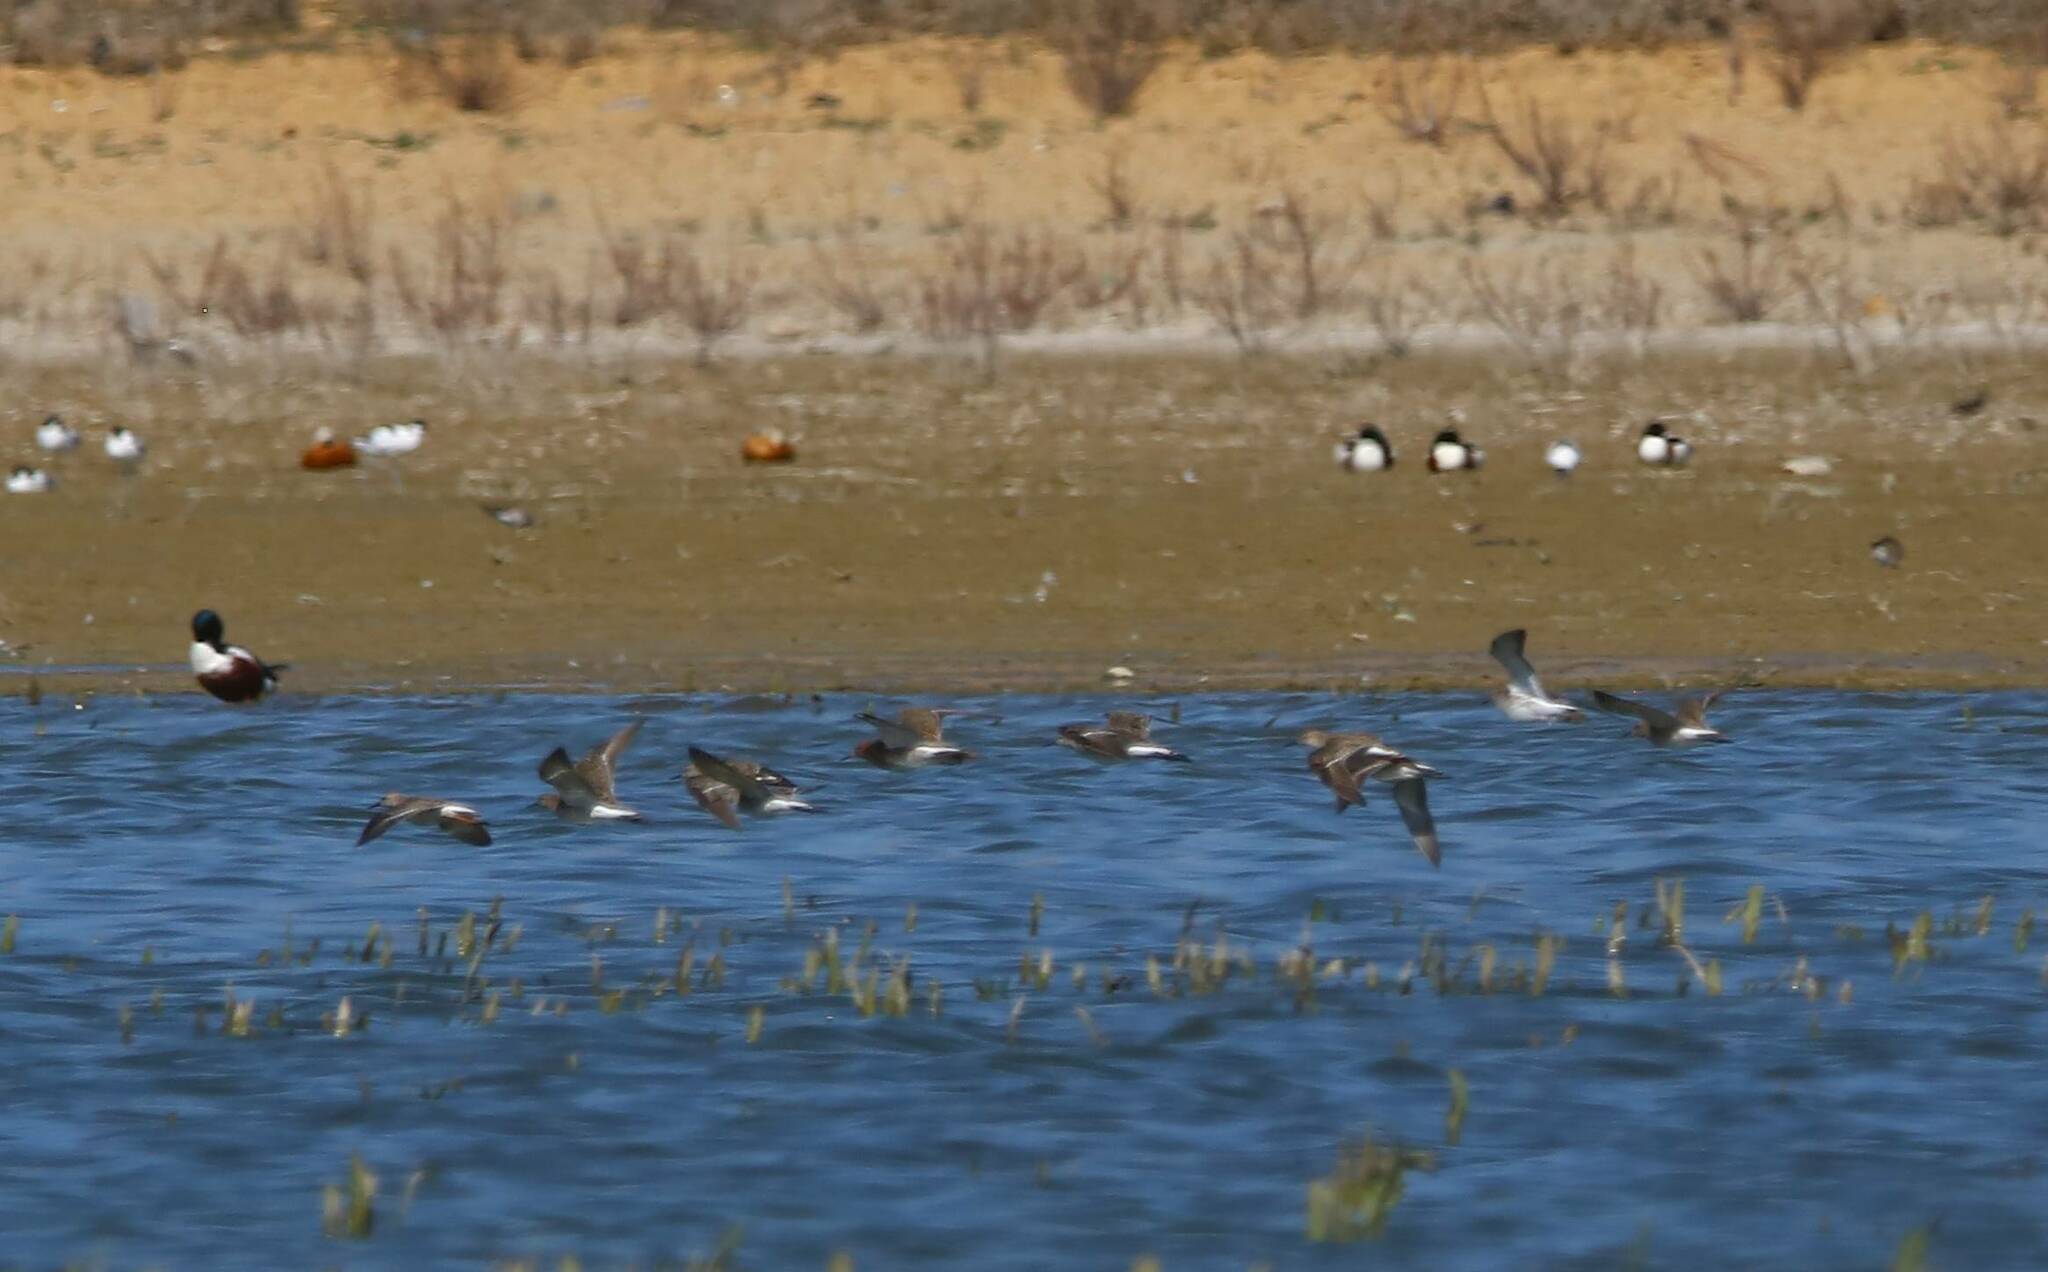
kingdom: Animalia
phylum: Chordata
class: Aves
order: Anseriformes
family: Anatidae
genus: Spatula
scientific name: Spatula clypeata
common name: Northern shoveler
